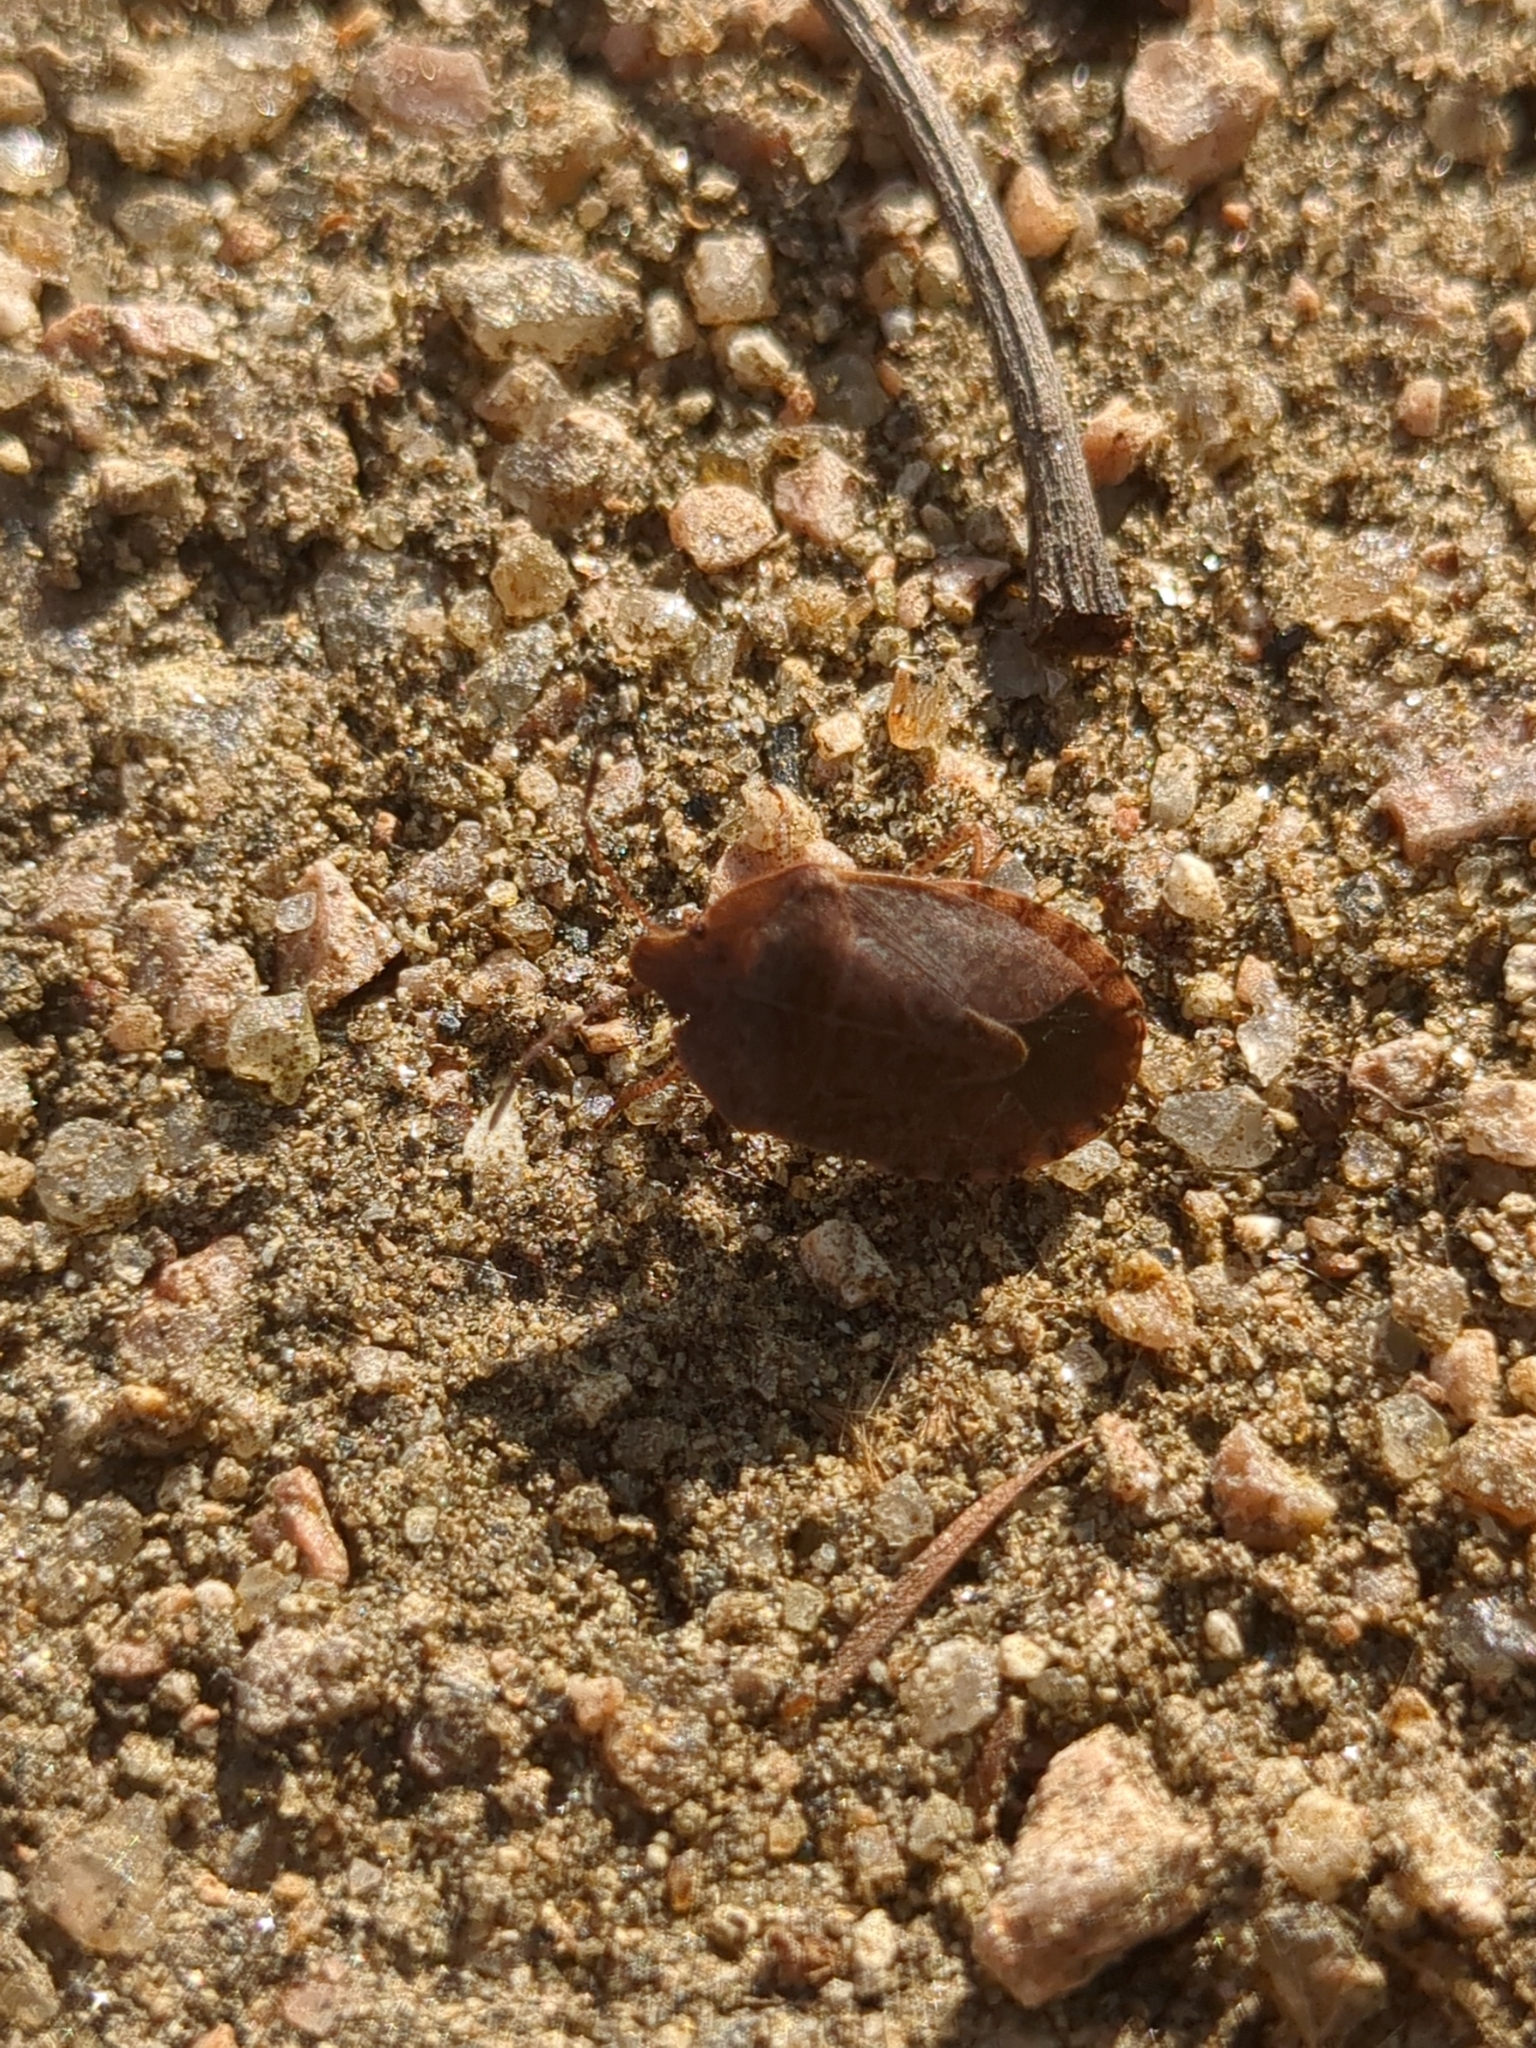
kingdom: Animalia
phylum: Arthropoda
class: Insecta
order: Hemiptera
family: Pentatomidae
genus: Menecles
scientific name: Menecles insertus
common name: Elf shoe stink bug
